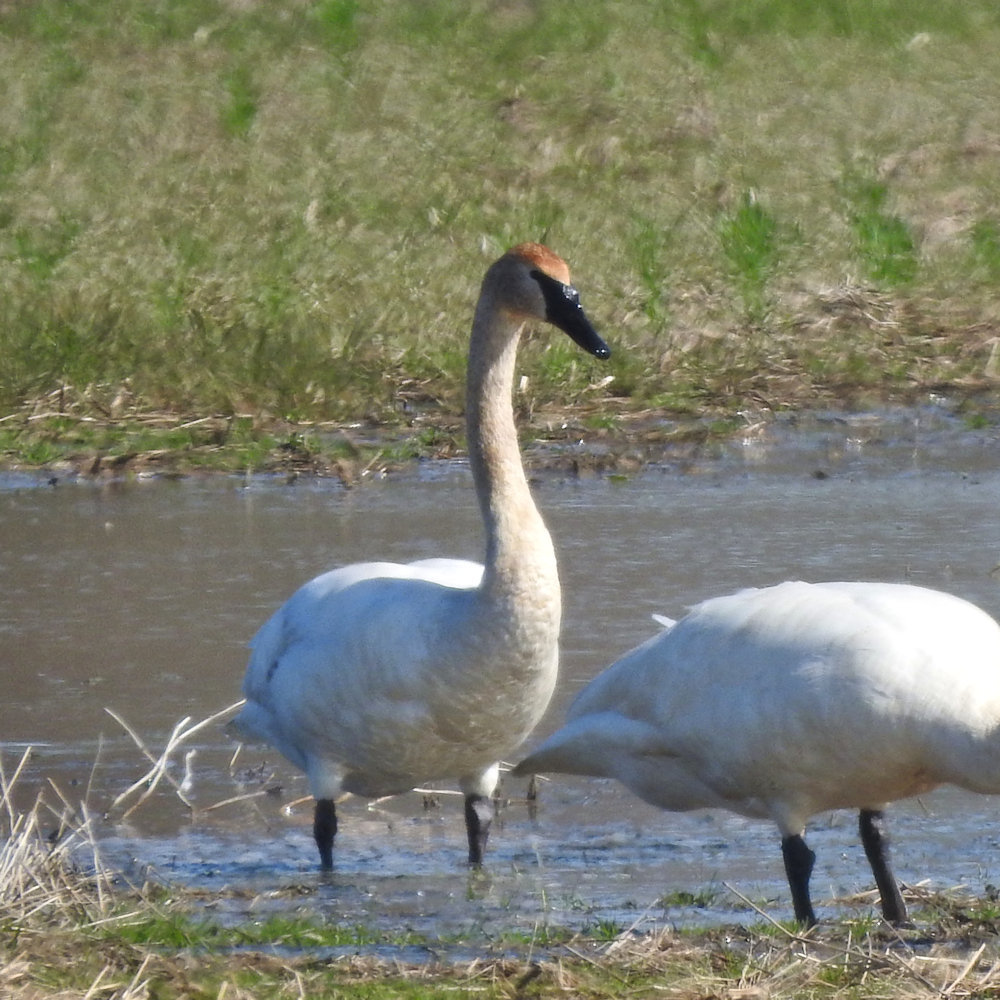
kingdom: Animalia
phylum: Chordata
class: Aves
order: Anseriformes
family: Anatidae
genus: Cygnus
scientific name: Cygnus buccinator
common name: Trumpeter swan
